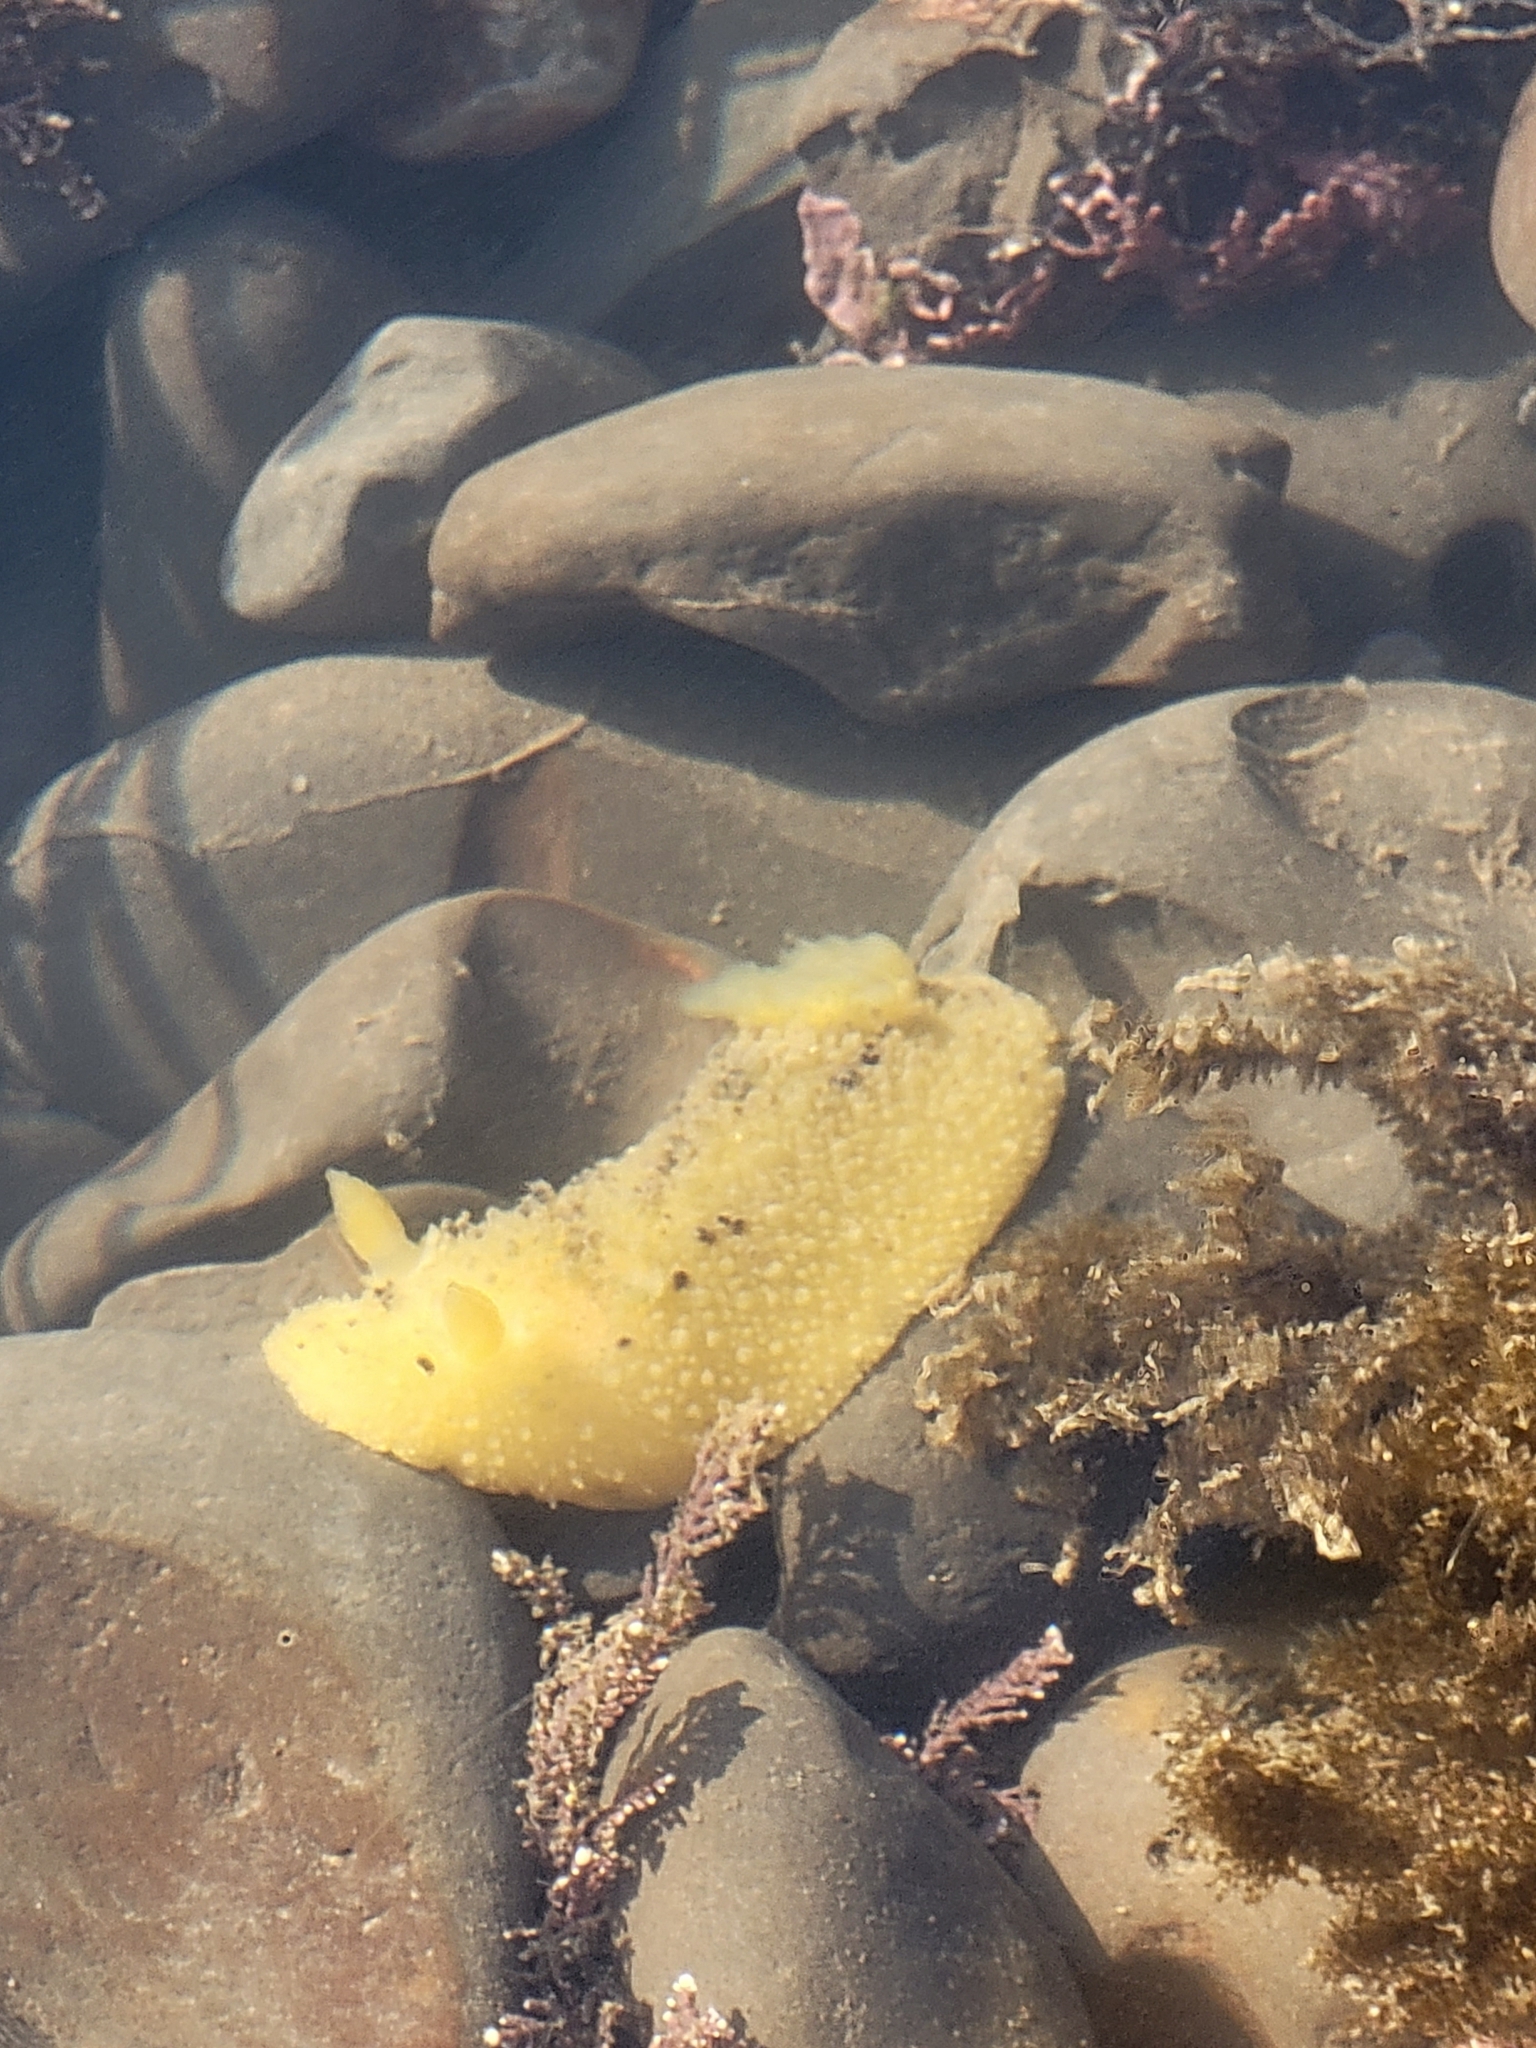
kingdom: Animalia
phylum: Mollusca
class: Gastropoda
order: Nudibranchia
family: Dorididae
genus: Doris
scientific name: Doris montereyensis
